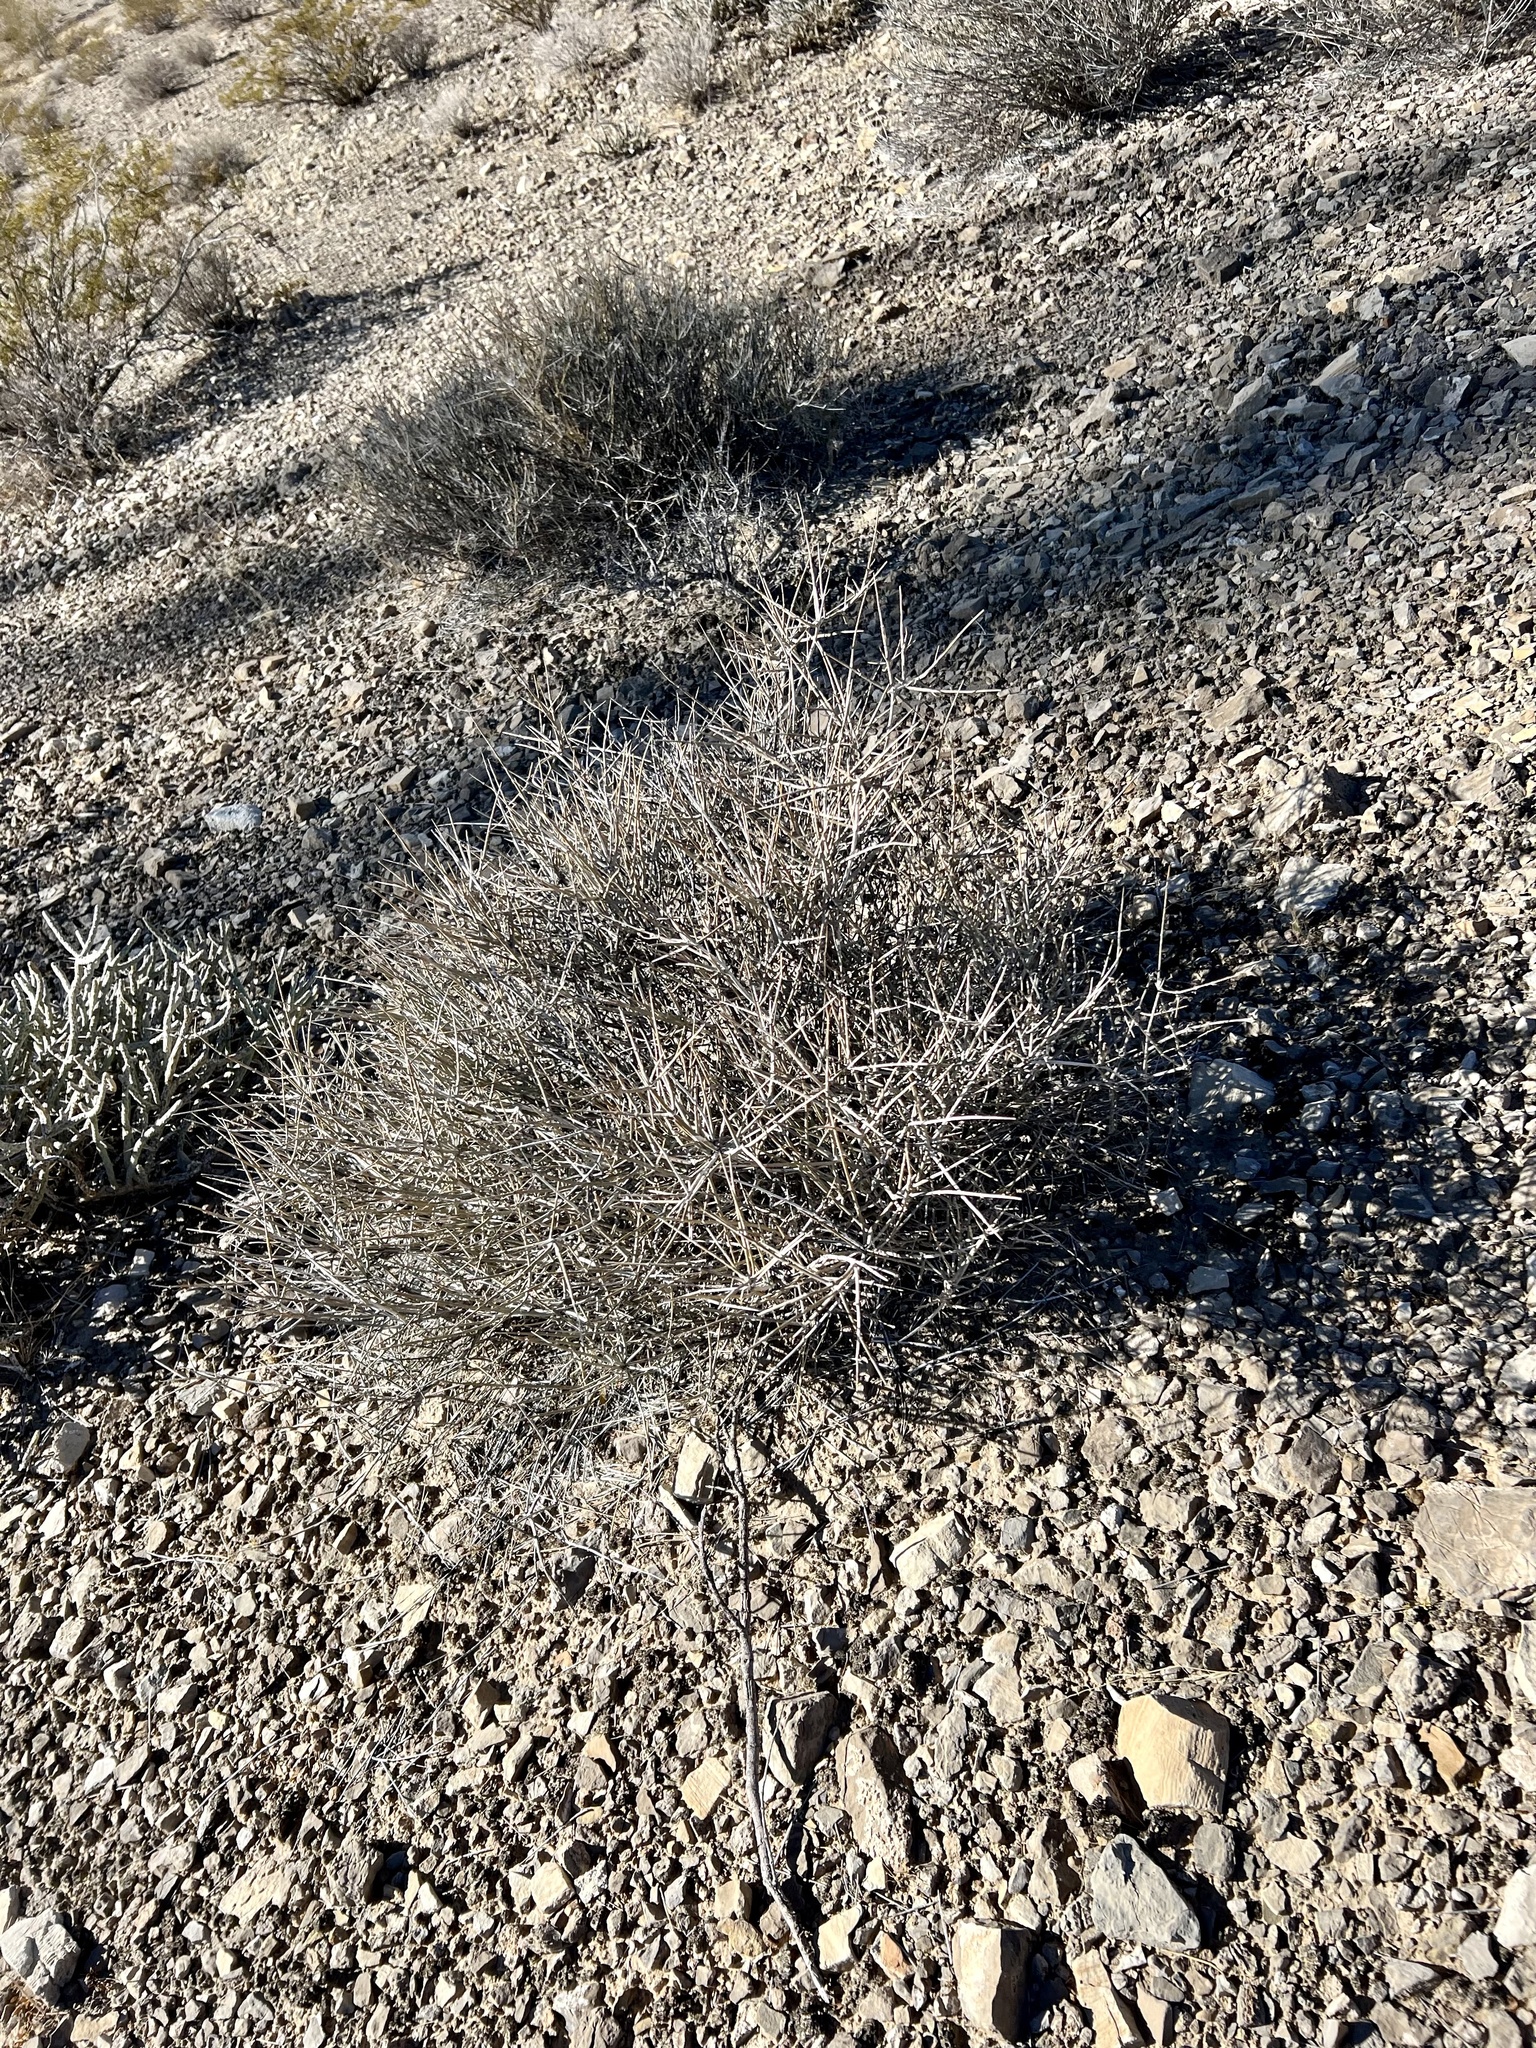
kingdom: Plantae
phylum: Tracheophyta
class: Gnetopsida
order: Ephedrales
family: Ephedraceae
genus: Ephedra
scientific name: Ephedra nevadensis
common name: Gray ephedra
